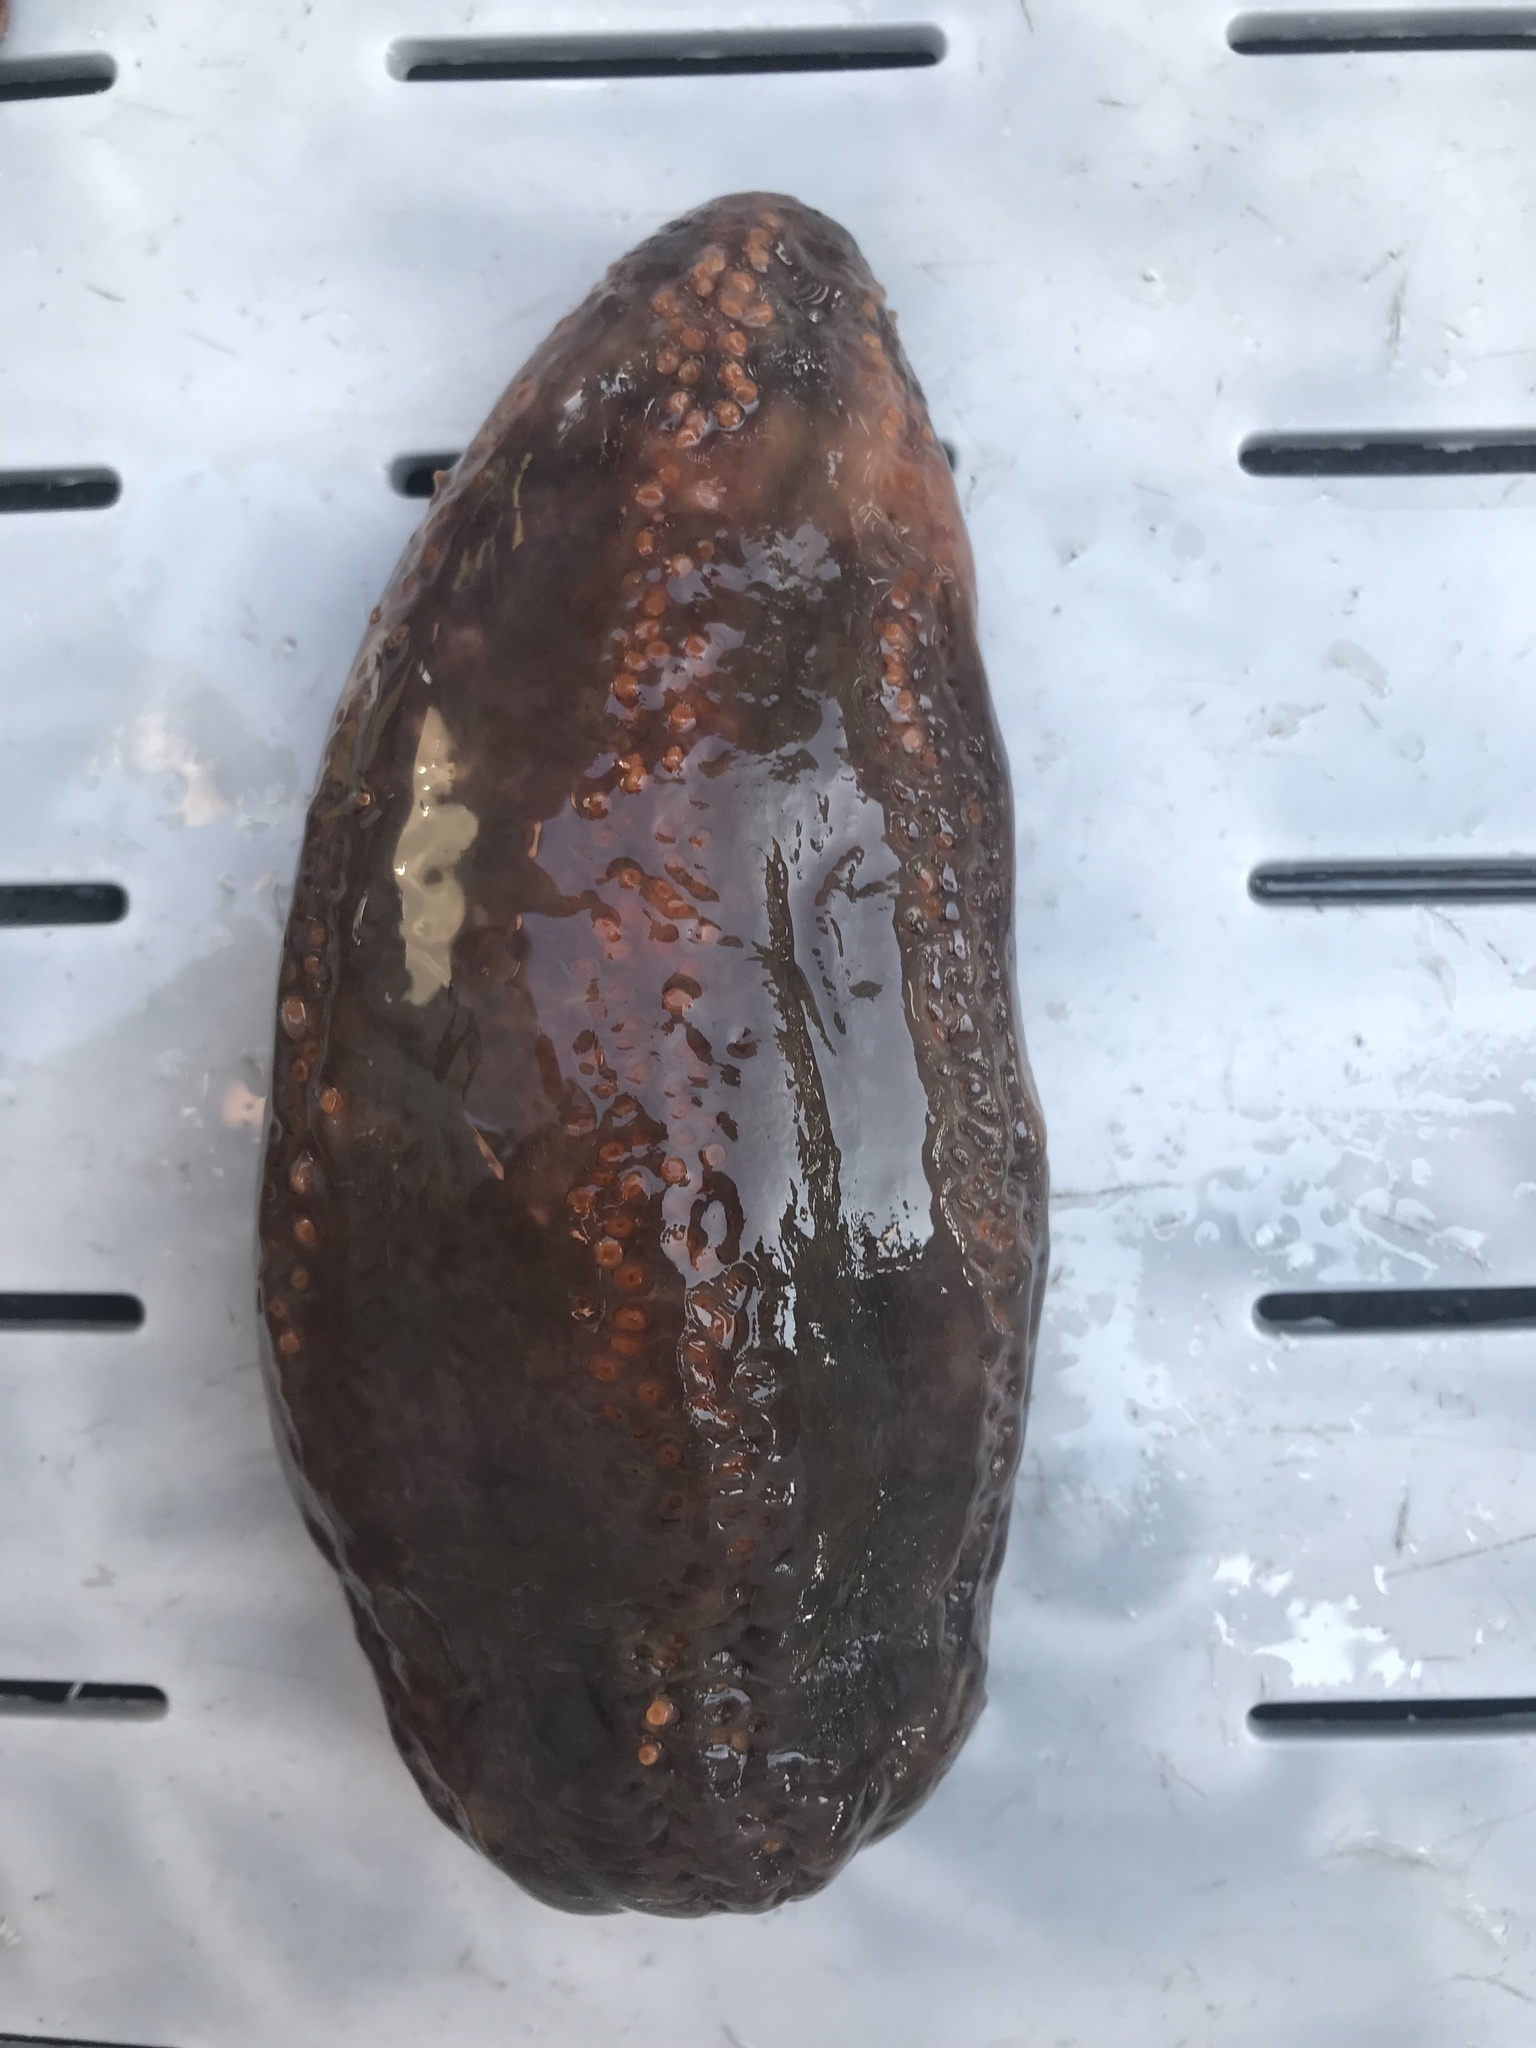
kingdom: Animalia
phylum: Echinodermata
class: Holothuroidea
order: Dendrochirotida
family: Cucumariidae
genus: Cucumaria
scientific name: Cucumaria frondosa
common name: Orange-footed sea cucumber
